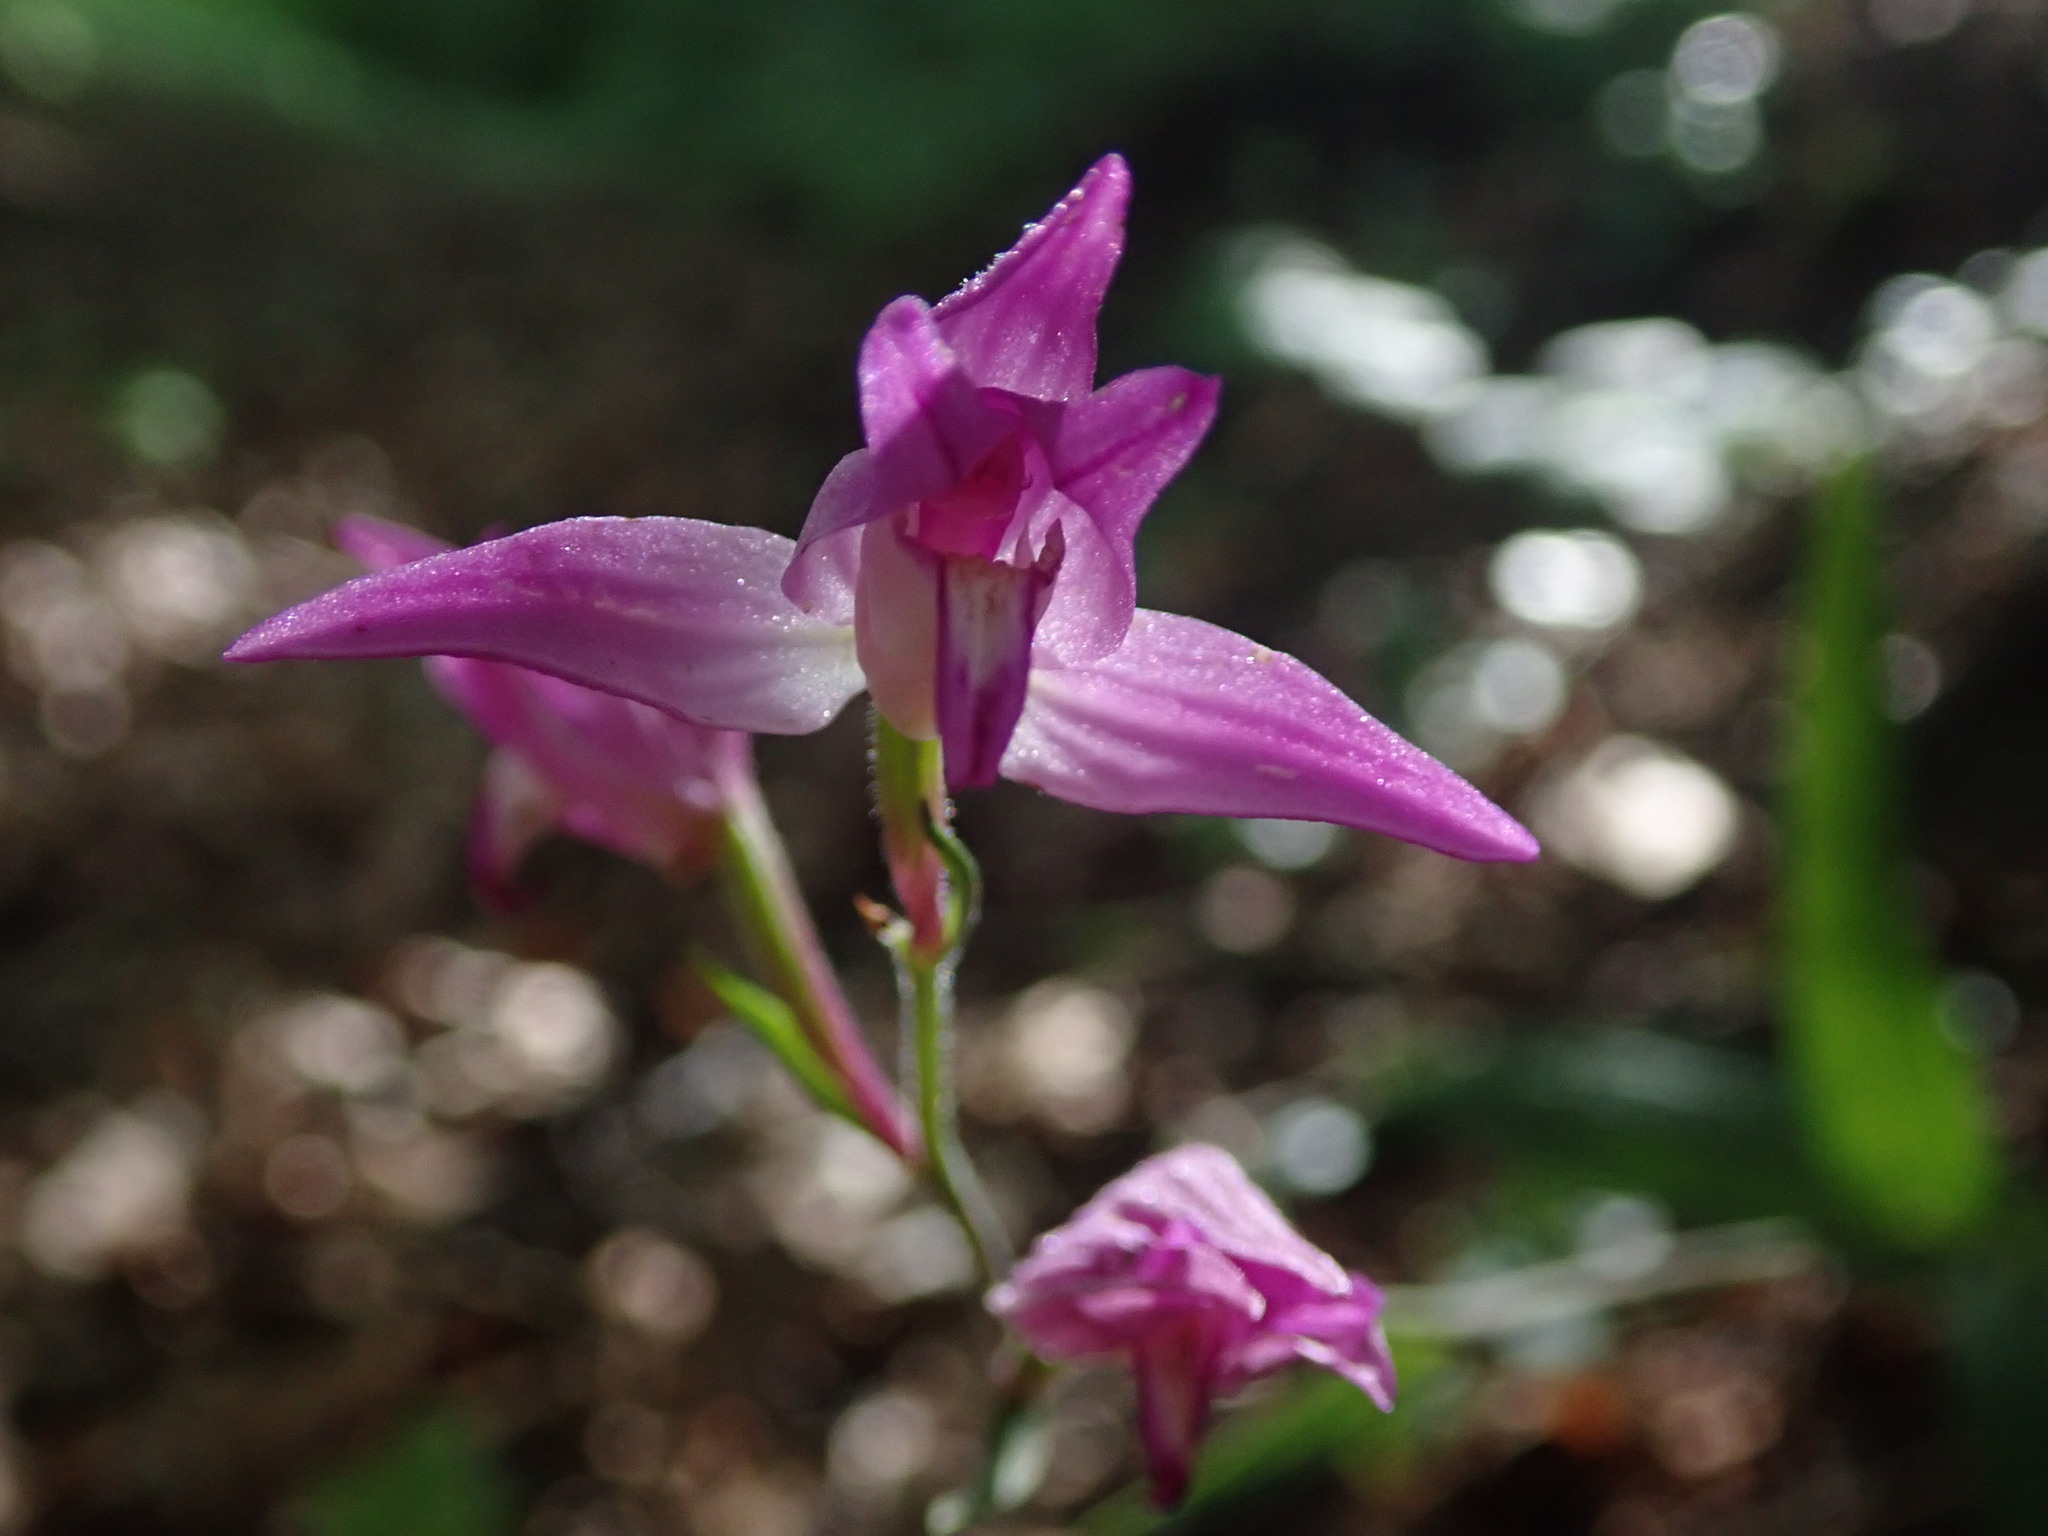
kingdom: Plantae
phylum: Tracheophyta
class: Liliopsida
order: Asparagales
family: Orchidaceae
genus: Cephalanthera
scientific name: Cephalanthera rubra
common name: Red helleborine
